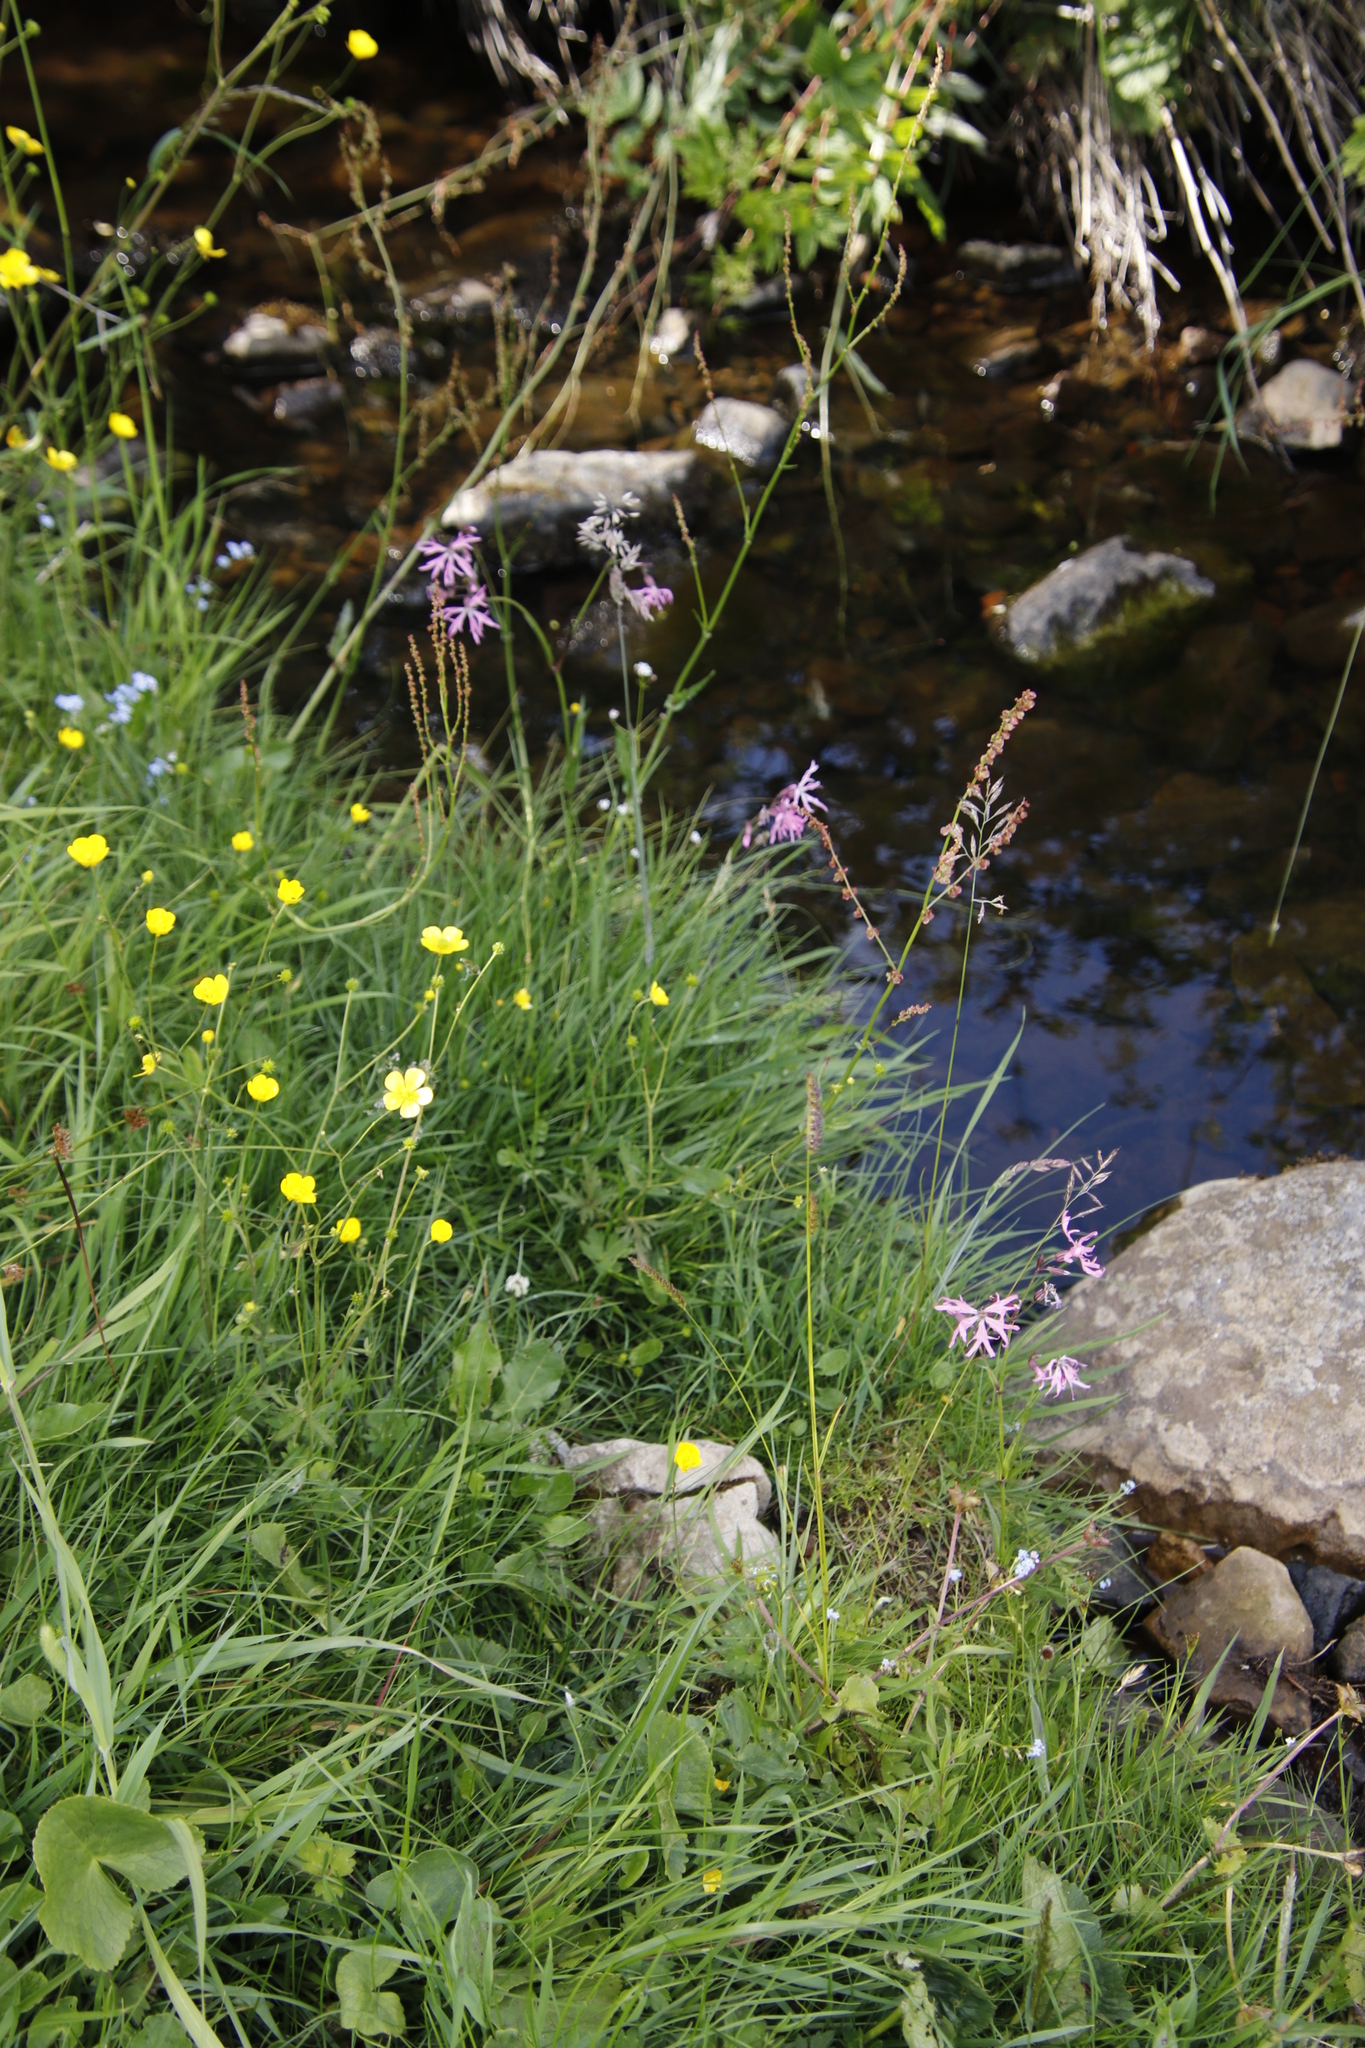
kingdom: Plantae
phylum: Tracheophyta
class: Magnoliopsida
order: Caryophyllales
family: Caryophyllaceae
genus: Silene
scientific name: Silene flos-cuculi
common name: Ragged-robin
